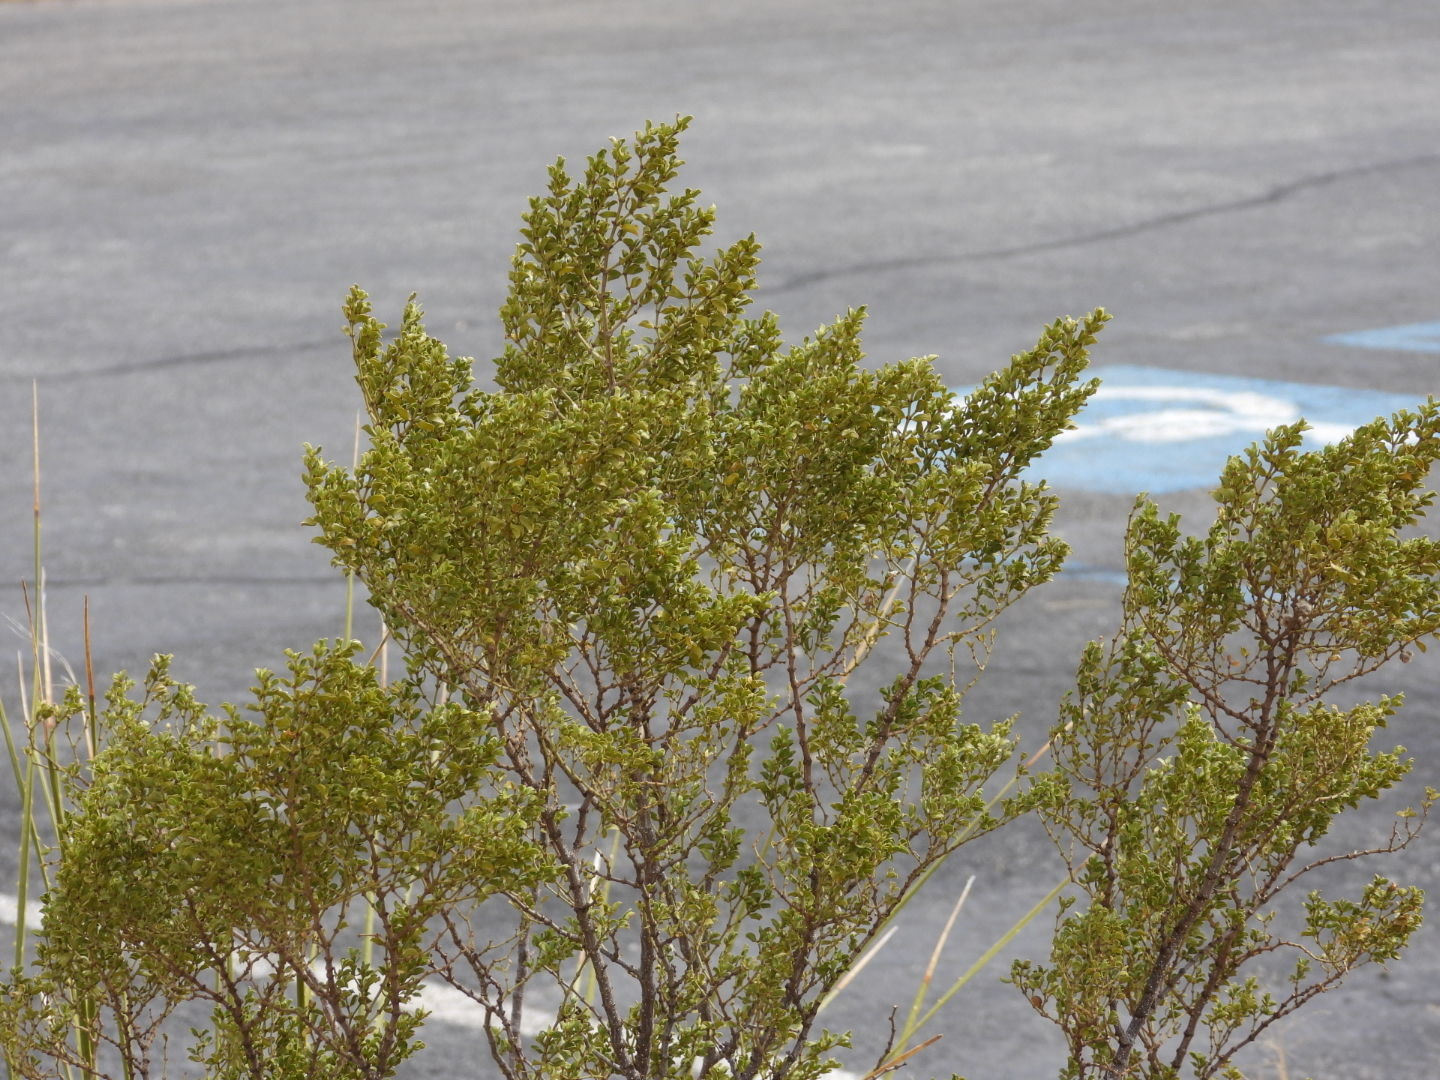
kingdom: Plantae
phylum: Tracheophyta
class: Magnoliopsida
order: Zygophyllales
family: Zygophyllaceae
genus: Larrea
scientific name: Larrea tridentata
